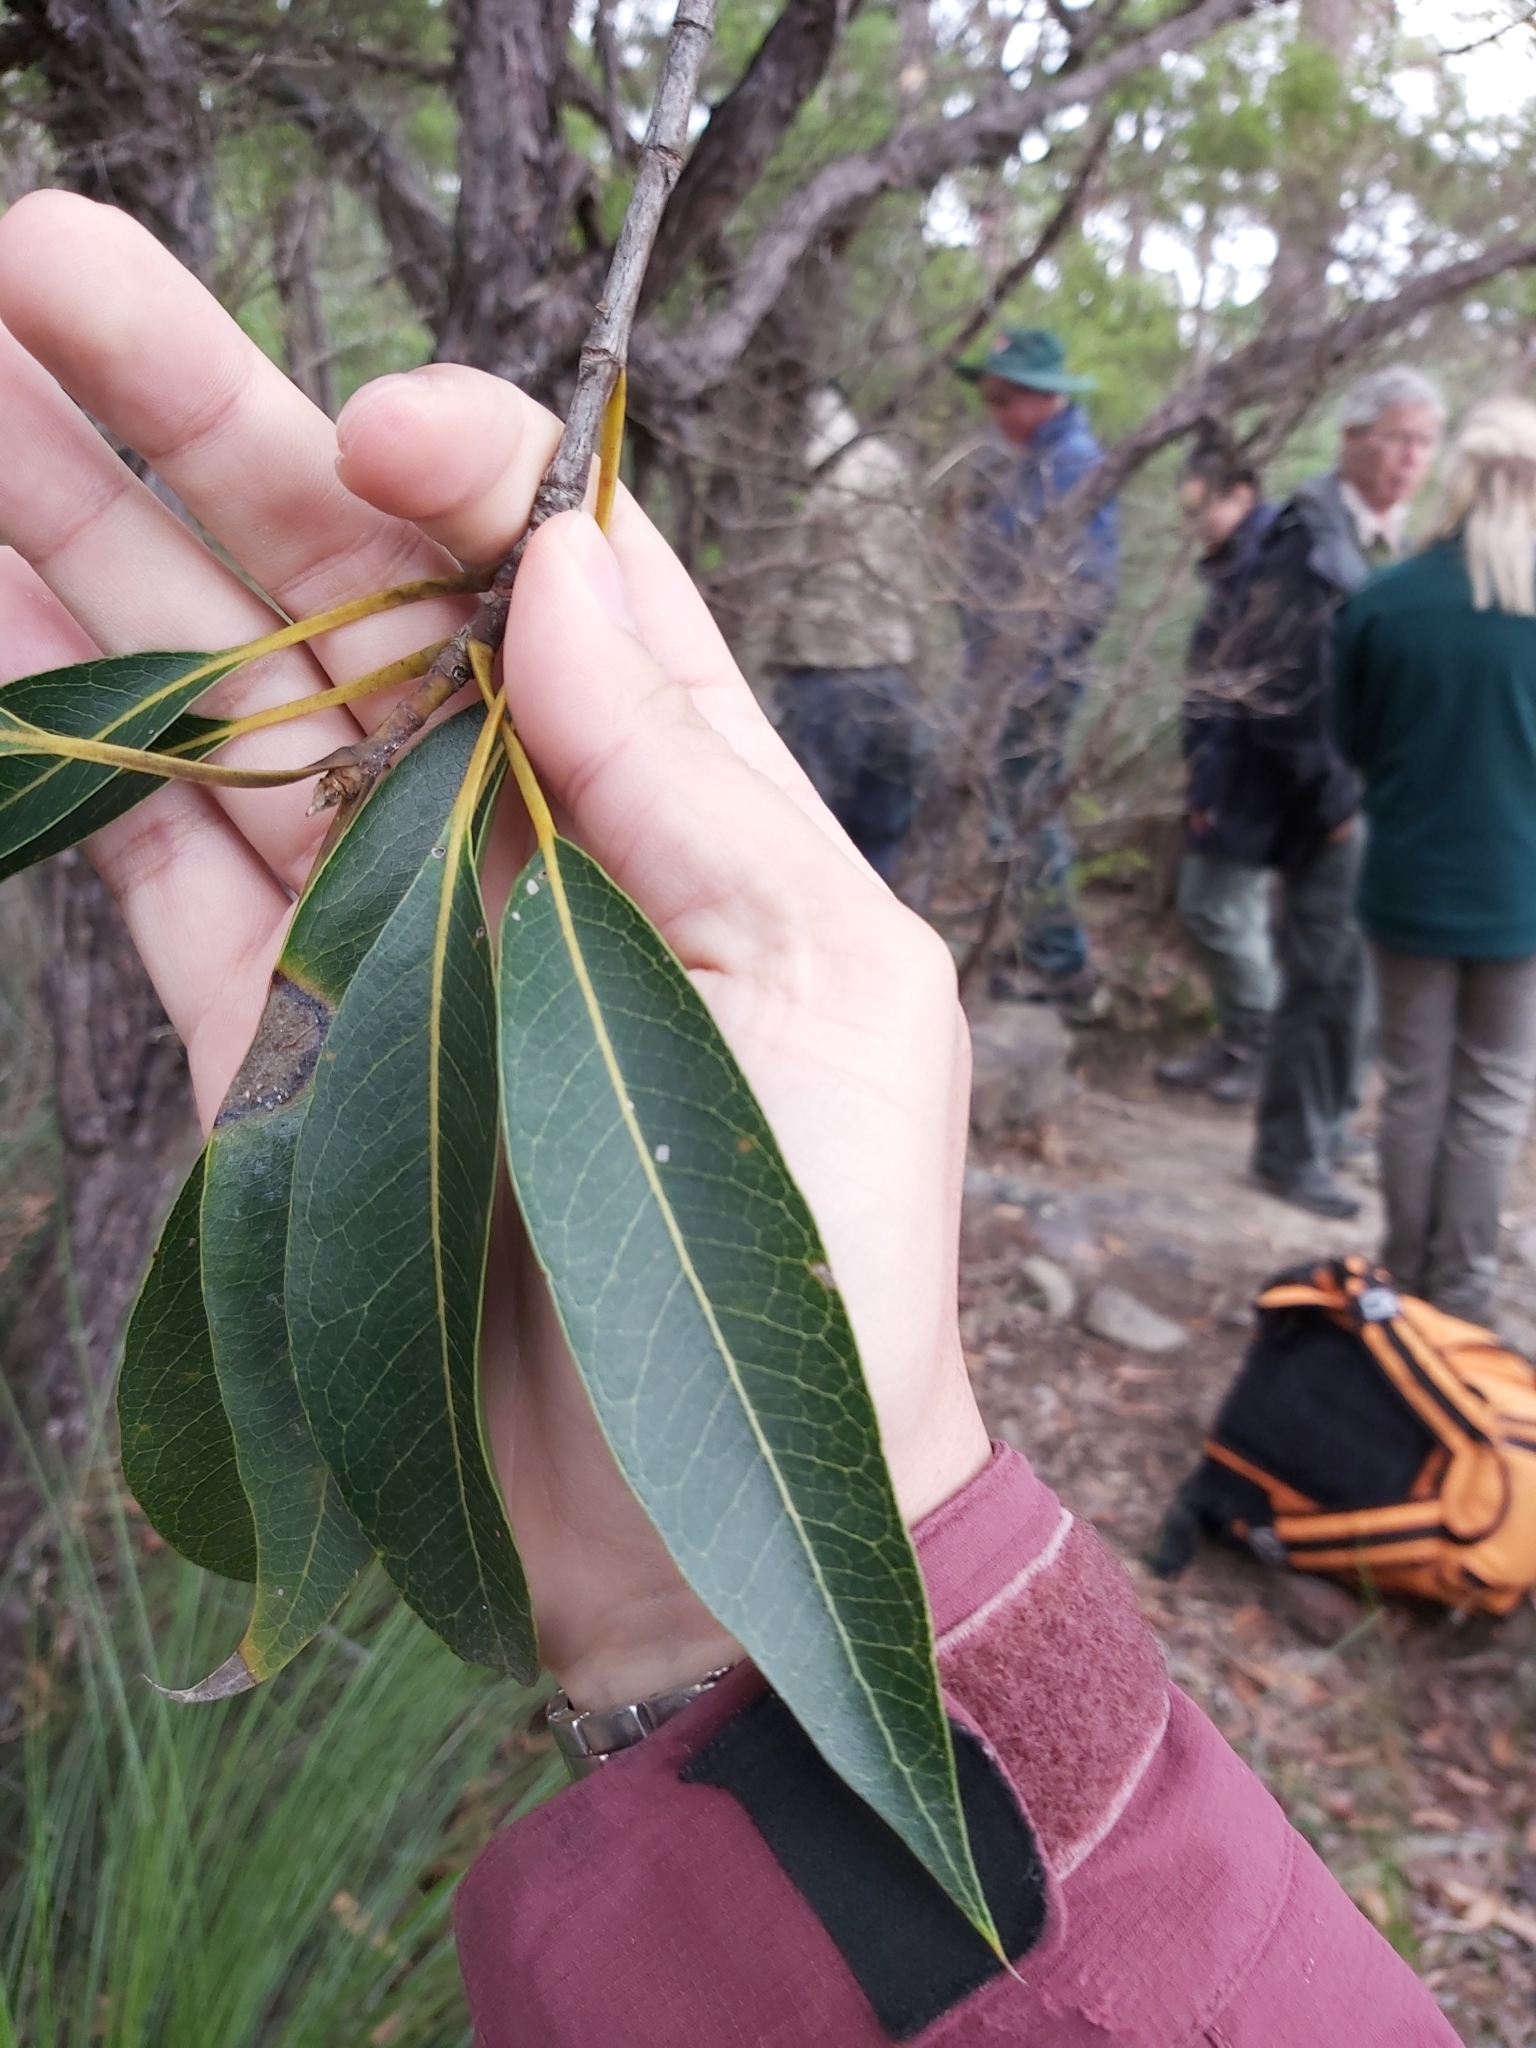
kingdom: Plantae
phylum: Tracheophyta
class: Magnoliopsida
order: Proteales
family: Proteaceae
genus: Xylomelum
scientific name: Xylomelum pyriforme
